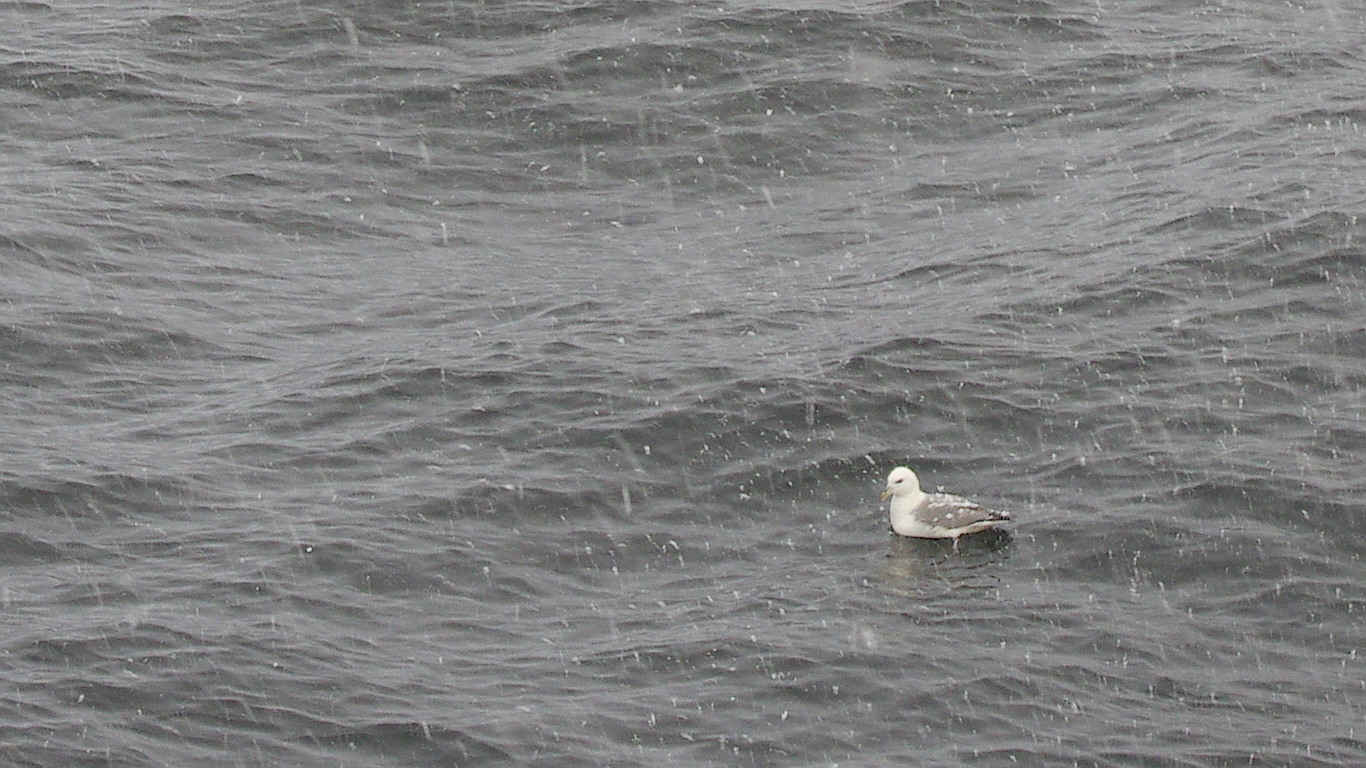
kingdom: Animalia
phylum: Chordata
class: Aves
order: Procellariiformes
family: Procellariidae
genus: Fulmarus
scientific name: Fulmarus glacialis
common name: Northern fulmar
